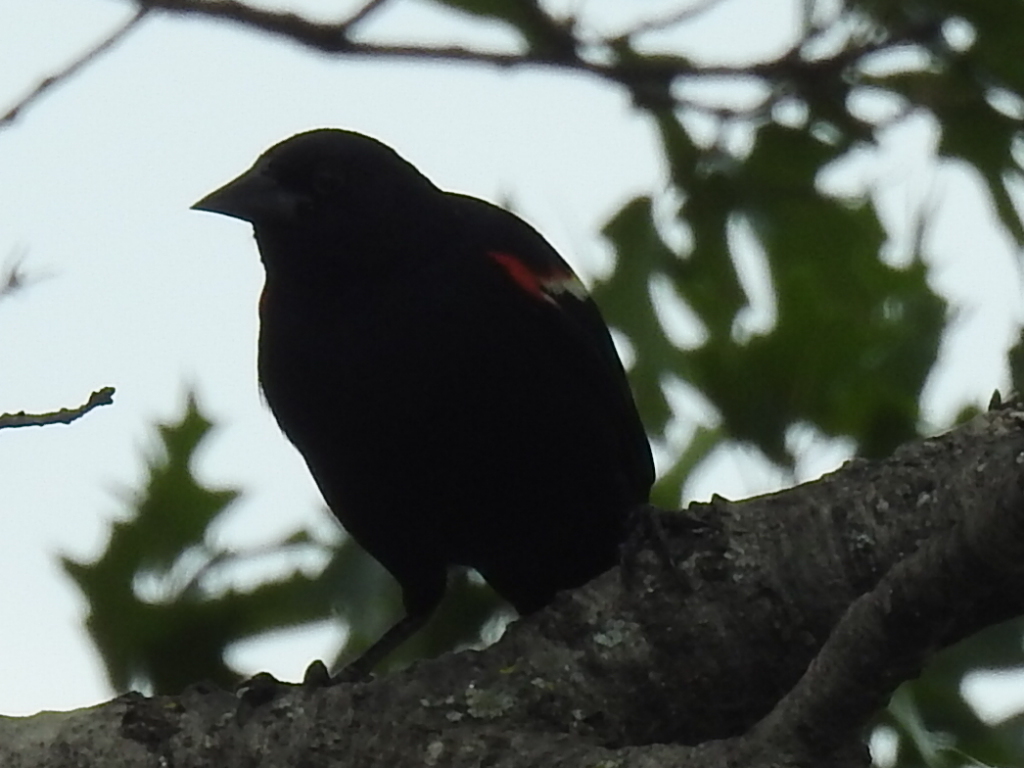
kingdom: Animalia
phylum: Chordata
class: Aves
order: Passeriformes
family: Icteridae
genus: Agelaius
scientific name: Agelaius phoeniceus
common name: Red-winged blackbird
